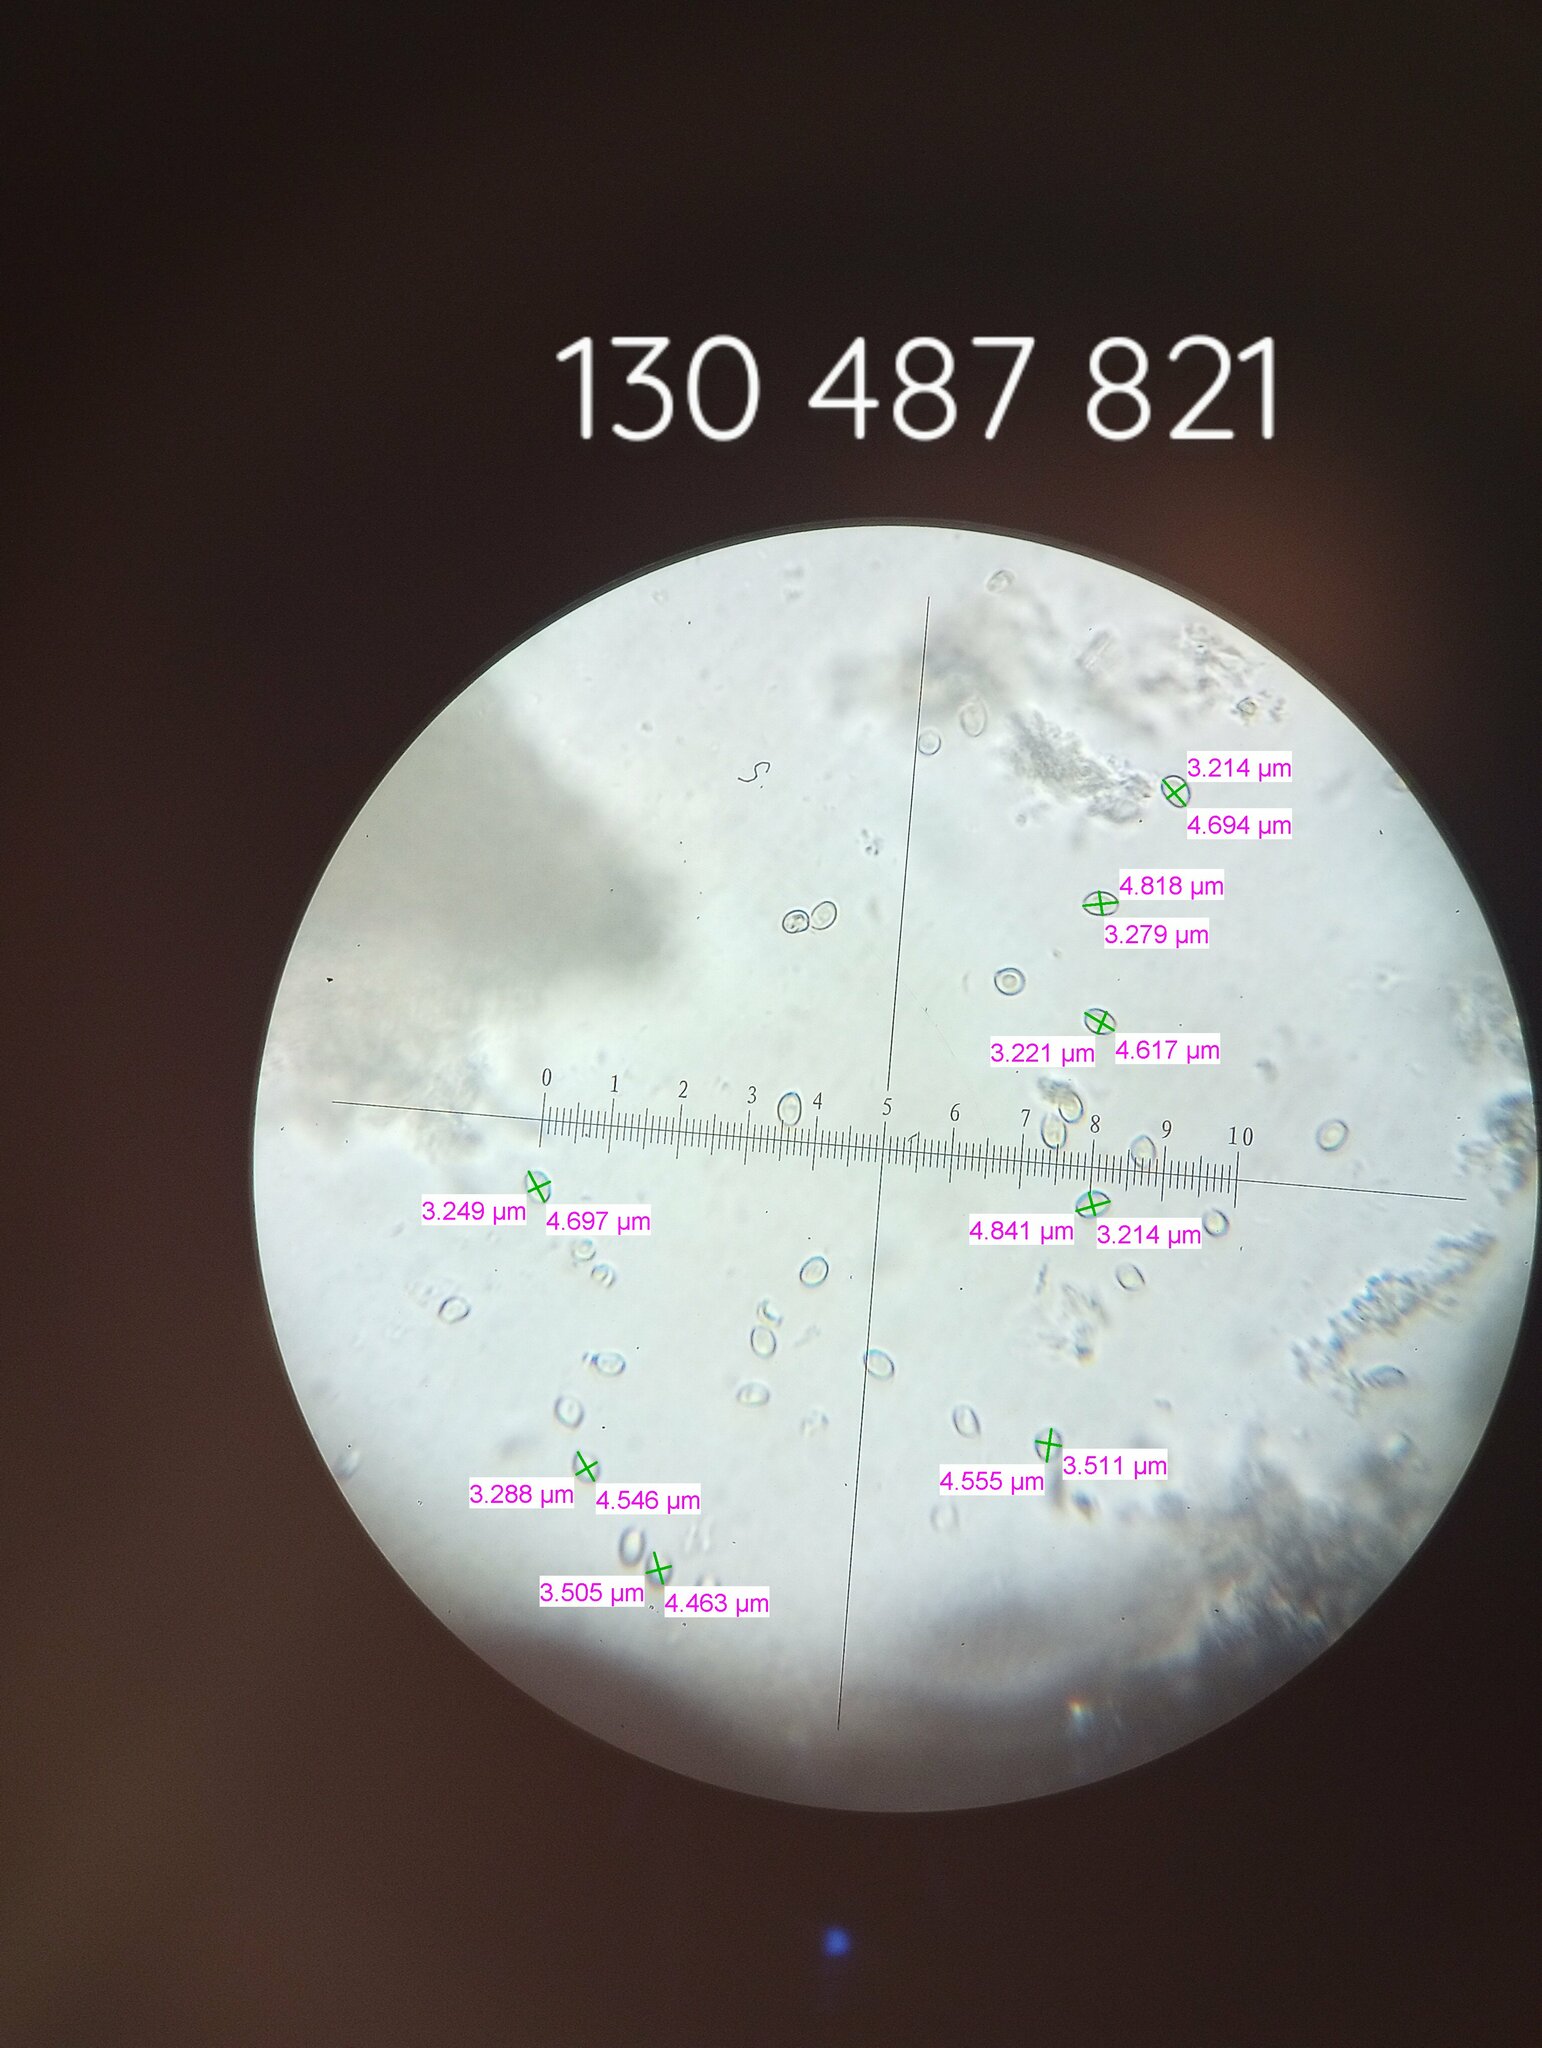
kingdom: Fungi
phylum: Basidiomycota
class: Agaricomycetes
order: Boletales
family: Tapinellaceae
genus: Tapinella
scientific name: Tapinella atrotomentosa
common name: Velvet rollrim
